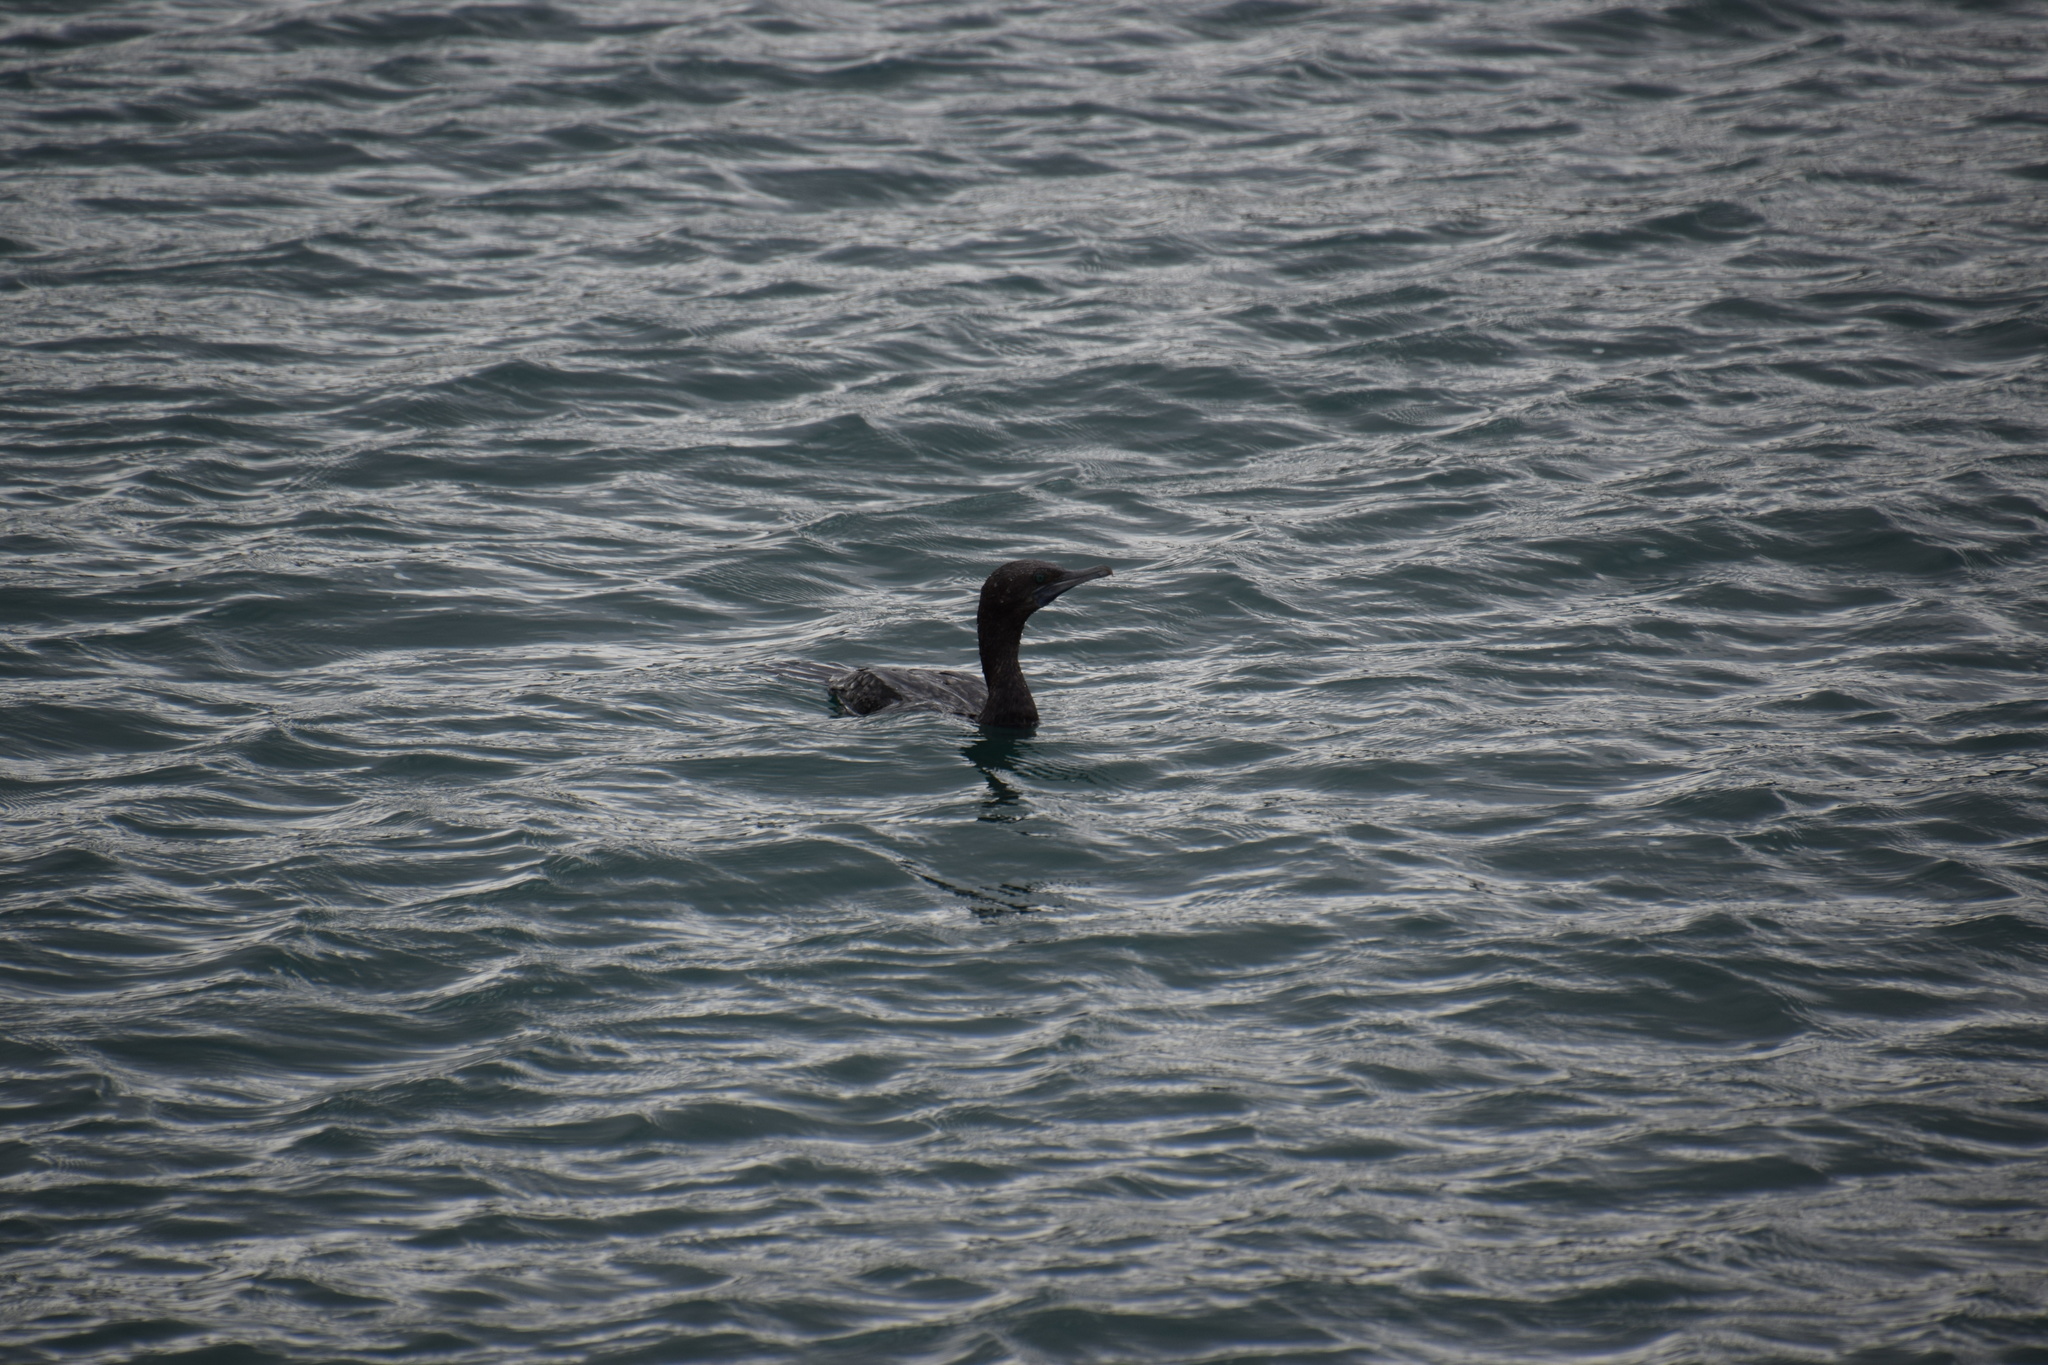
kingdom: Animalia
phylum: Chordata
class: Aves
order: Suliformes
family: Phalacrocoracidae
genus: Phalacrocorax
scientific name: Phalacrocorax sulcirostris
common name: Little black cormorant
